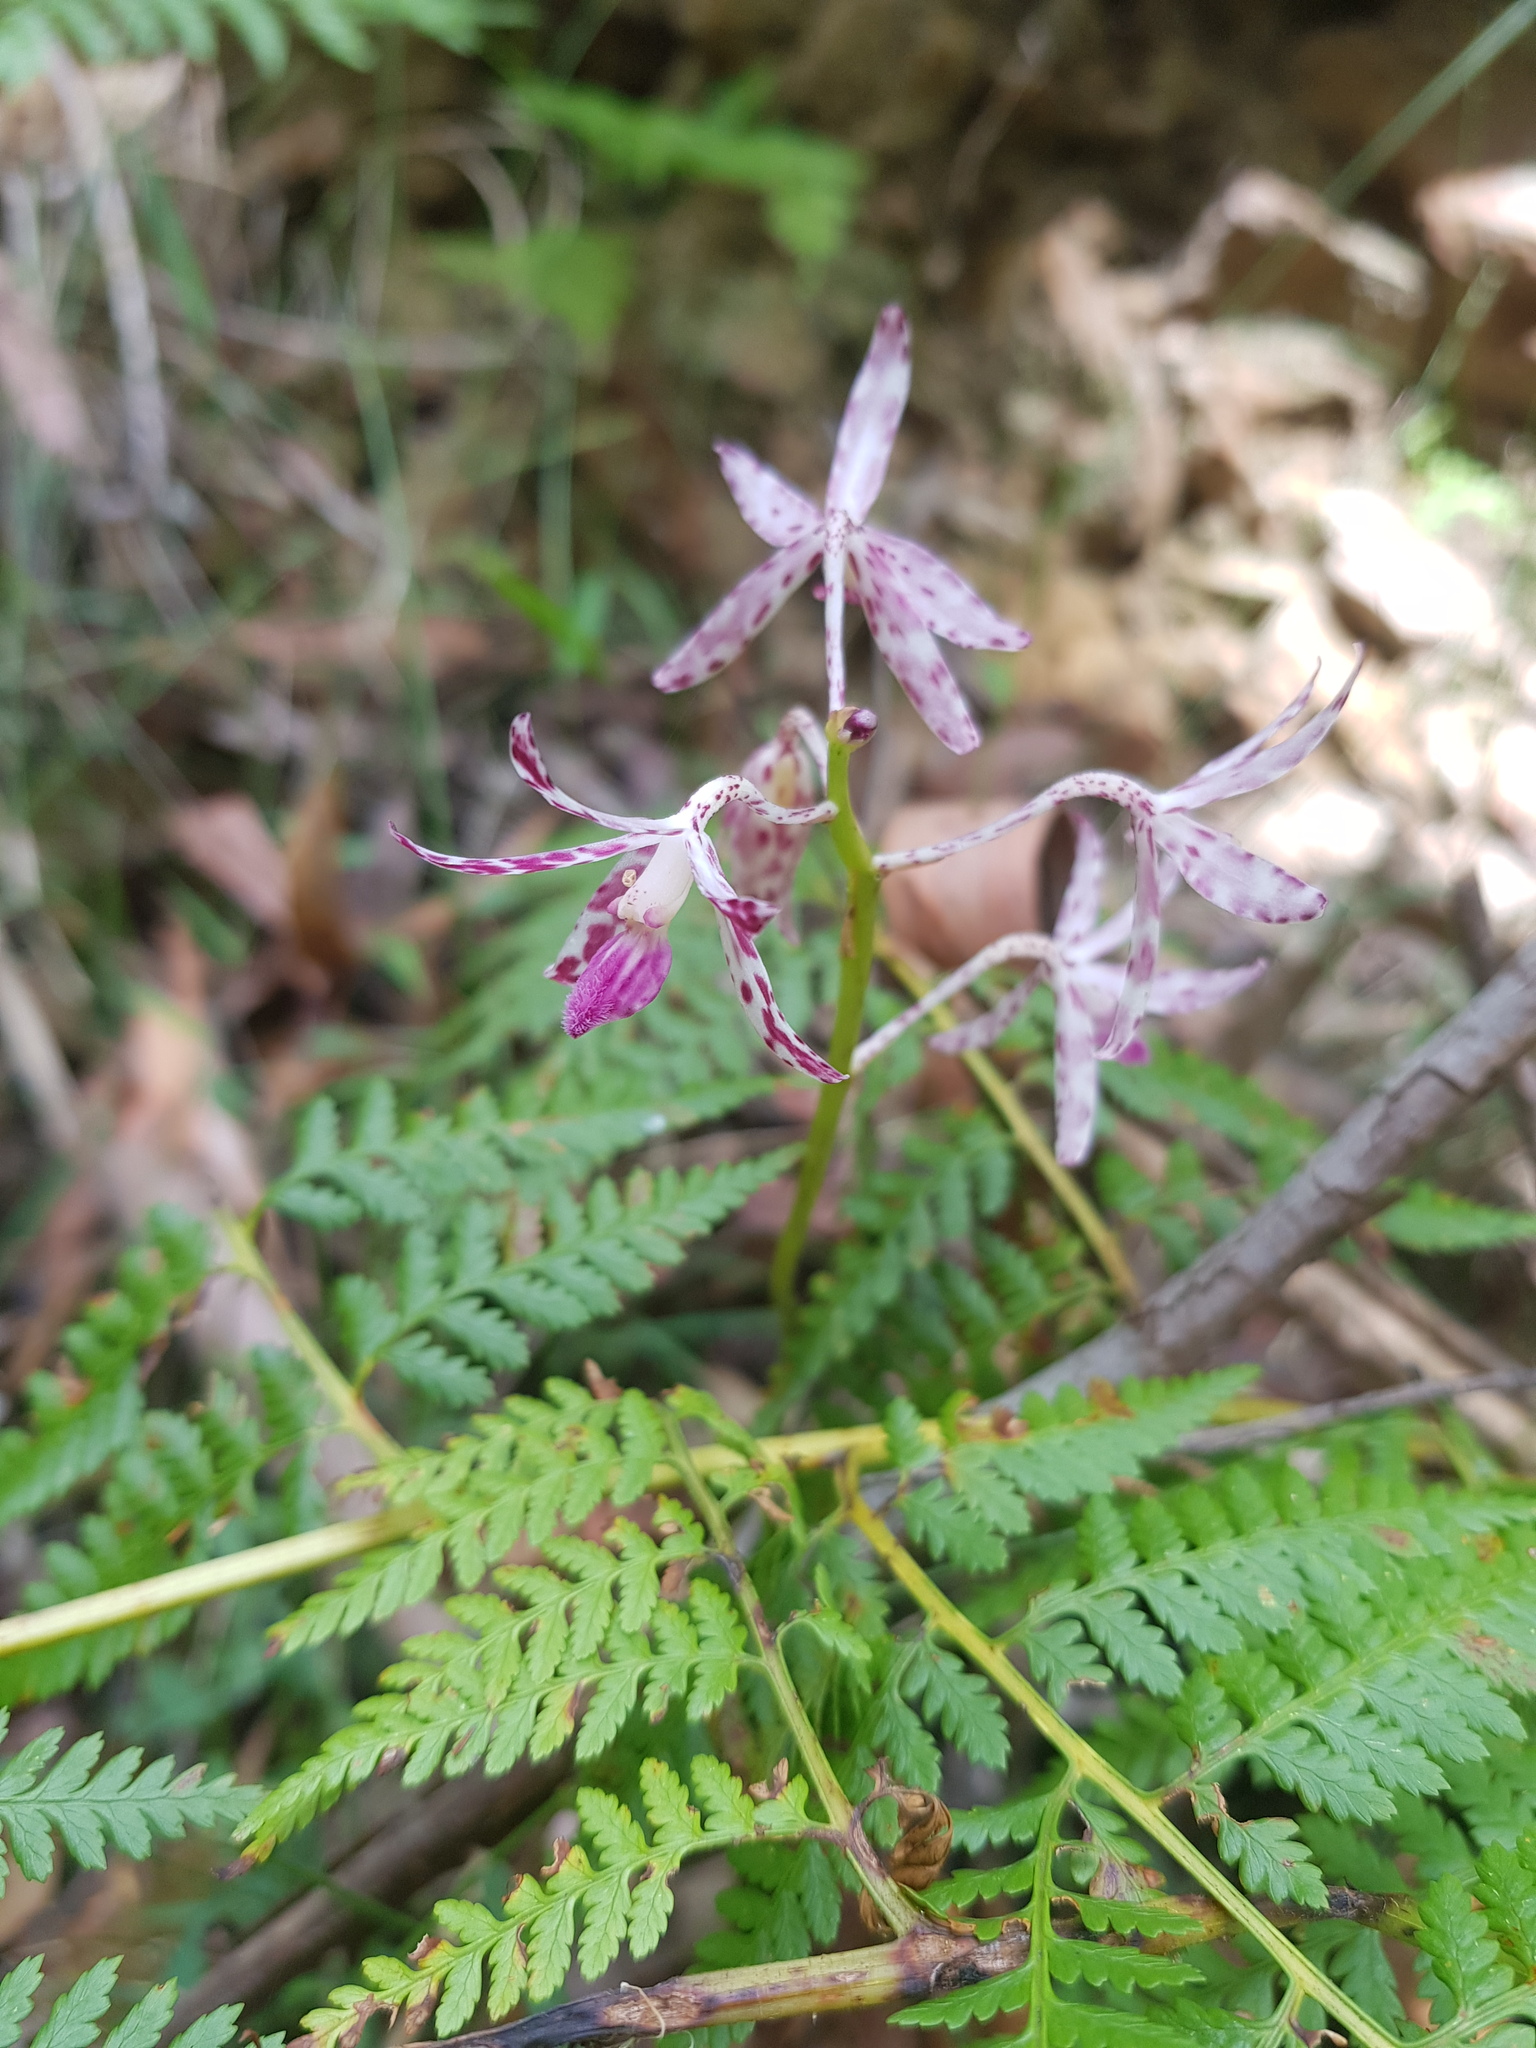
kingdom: Plantae
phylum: Tracheophyta
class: Liliopsida
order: Asparagales
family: Orchidaceae
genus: Dipodium
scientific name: Dipodium variegatum
